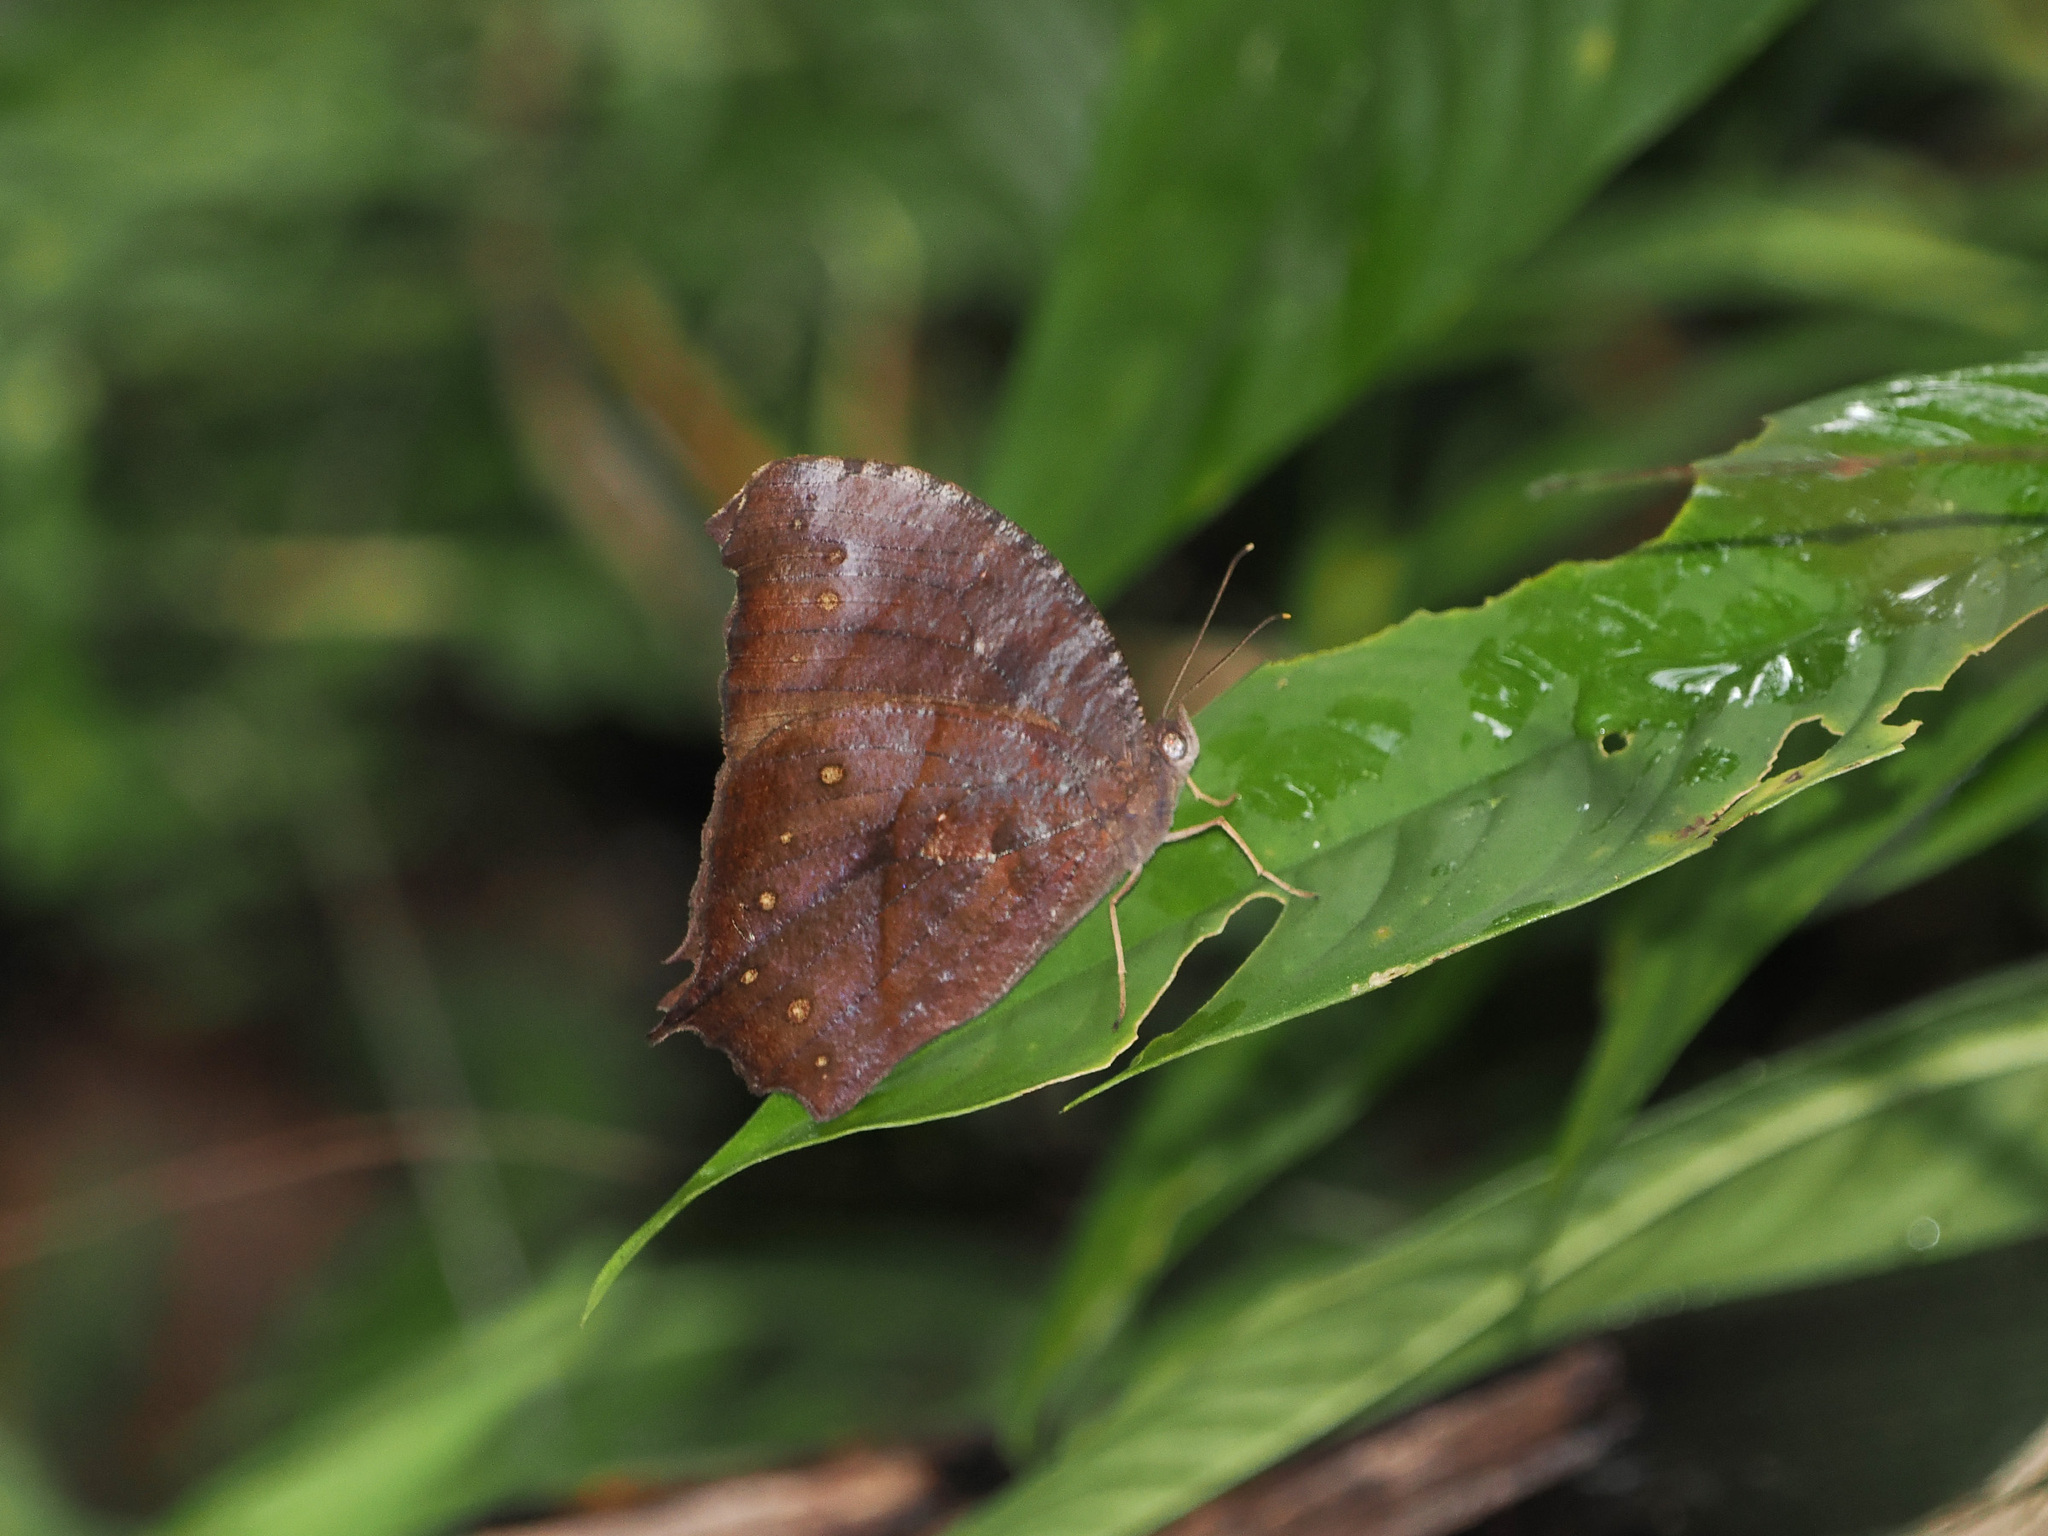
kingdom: Animalia
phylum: Arthropoda
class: Insecta
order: Lepidoptera
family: Nymphalidae
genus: Melanitis
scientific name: Melanitis phedima
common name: Dark evening brown
